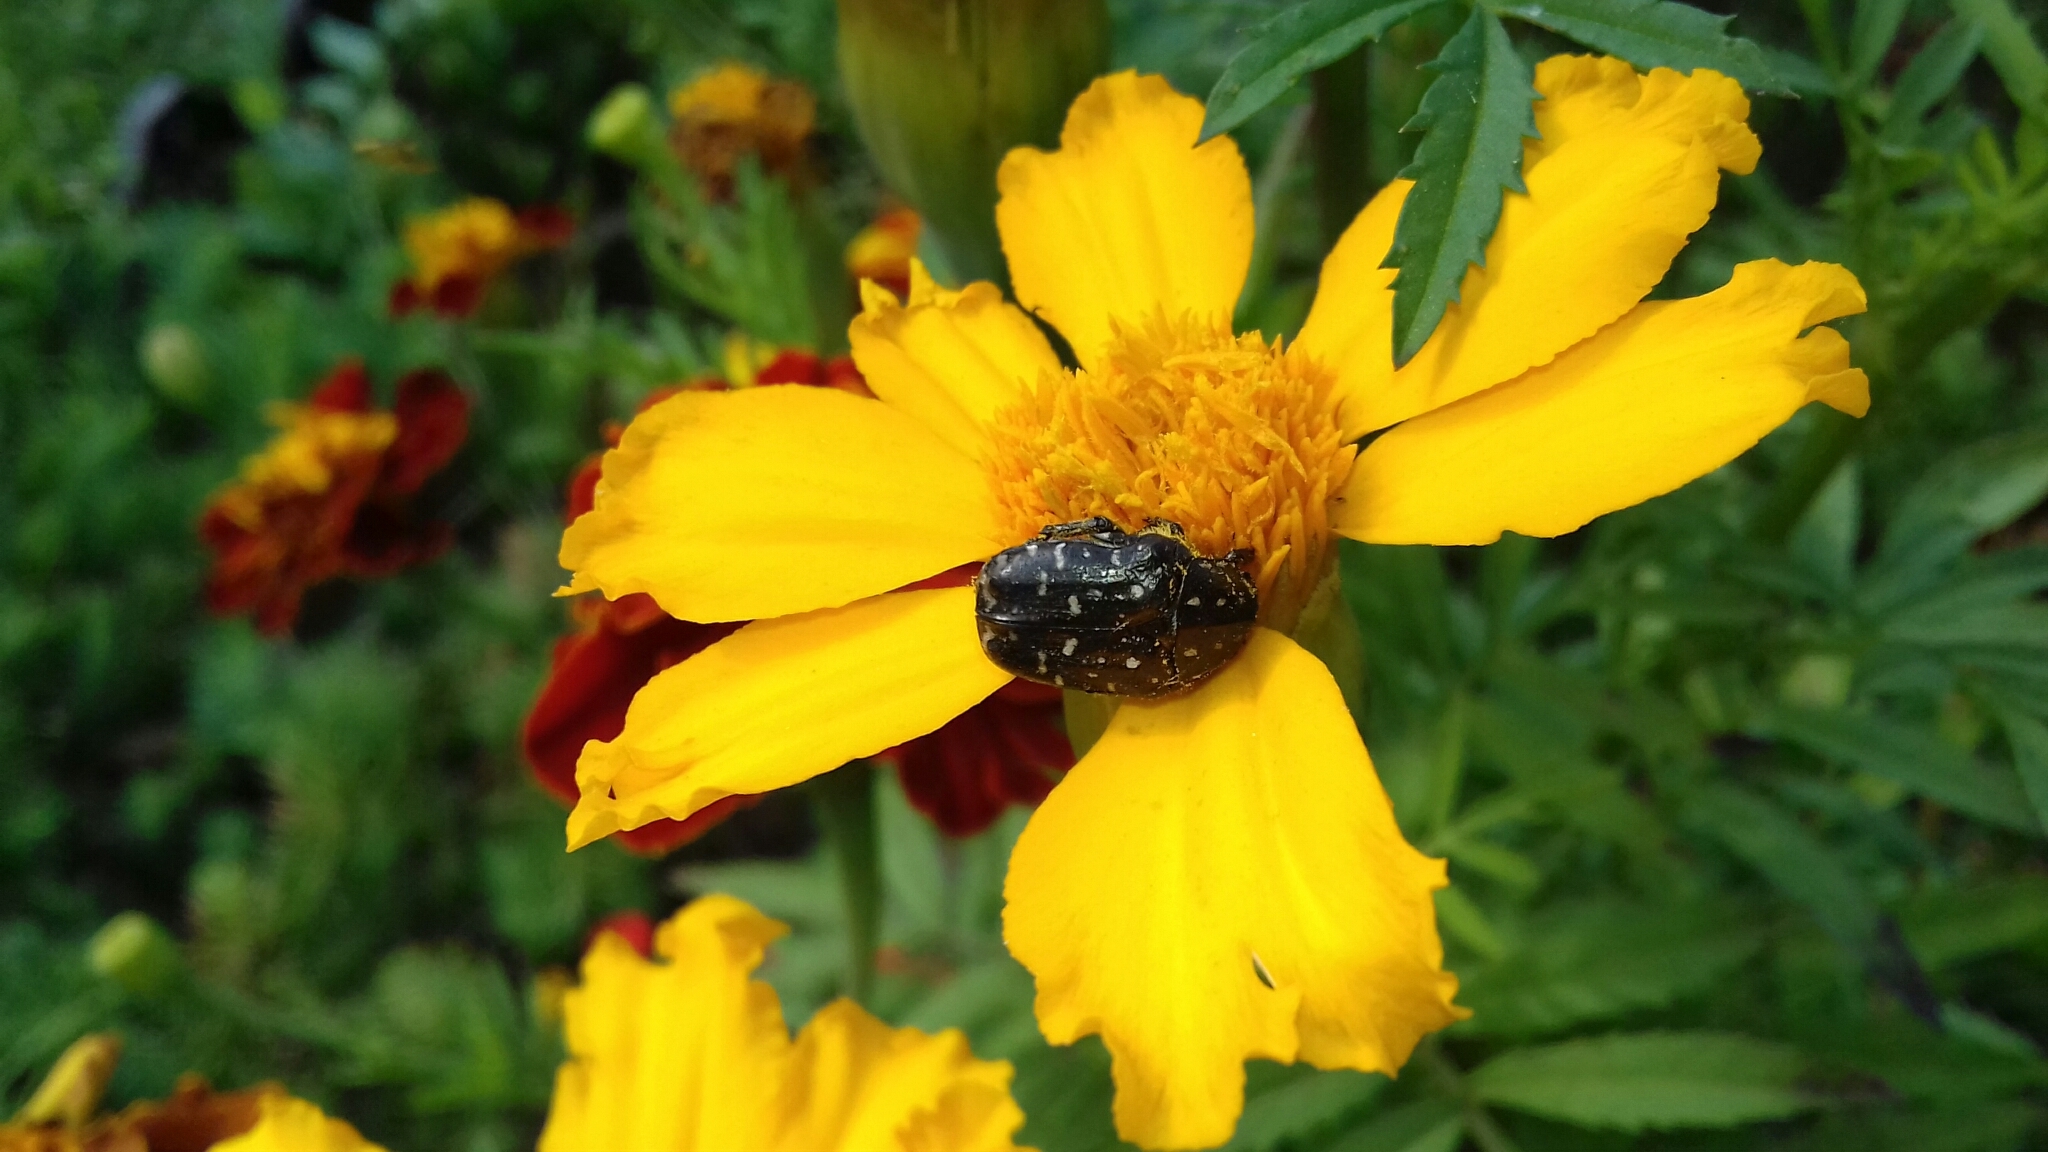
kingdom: Animalia
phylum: Arthropoda
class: Insecta
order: Coleoptera
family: Scarabaeidae
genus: Oxythyrea
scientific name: Oxythyrea funesta
